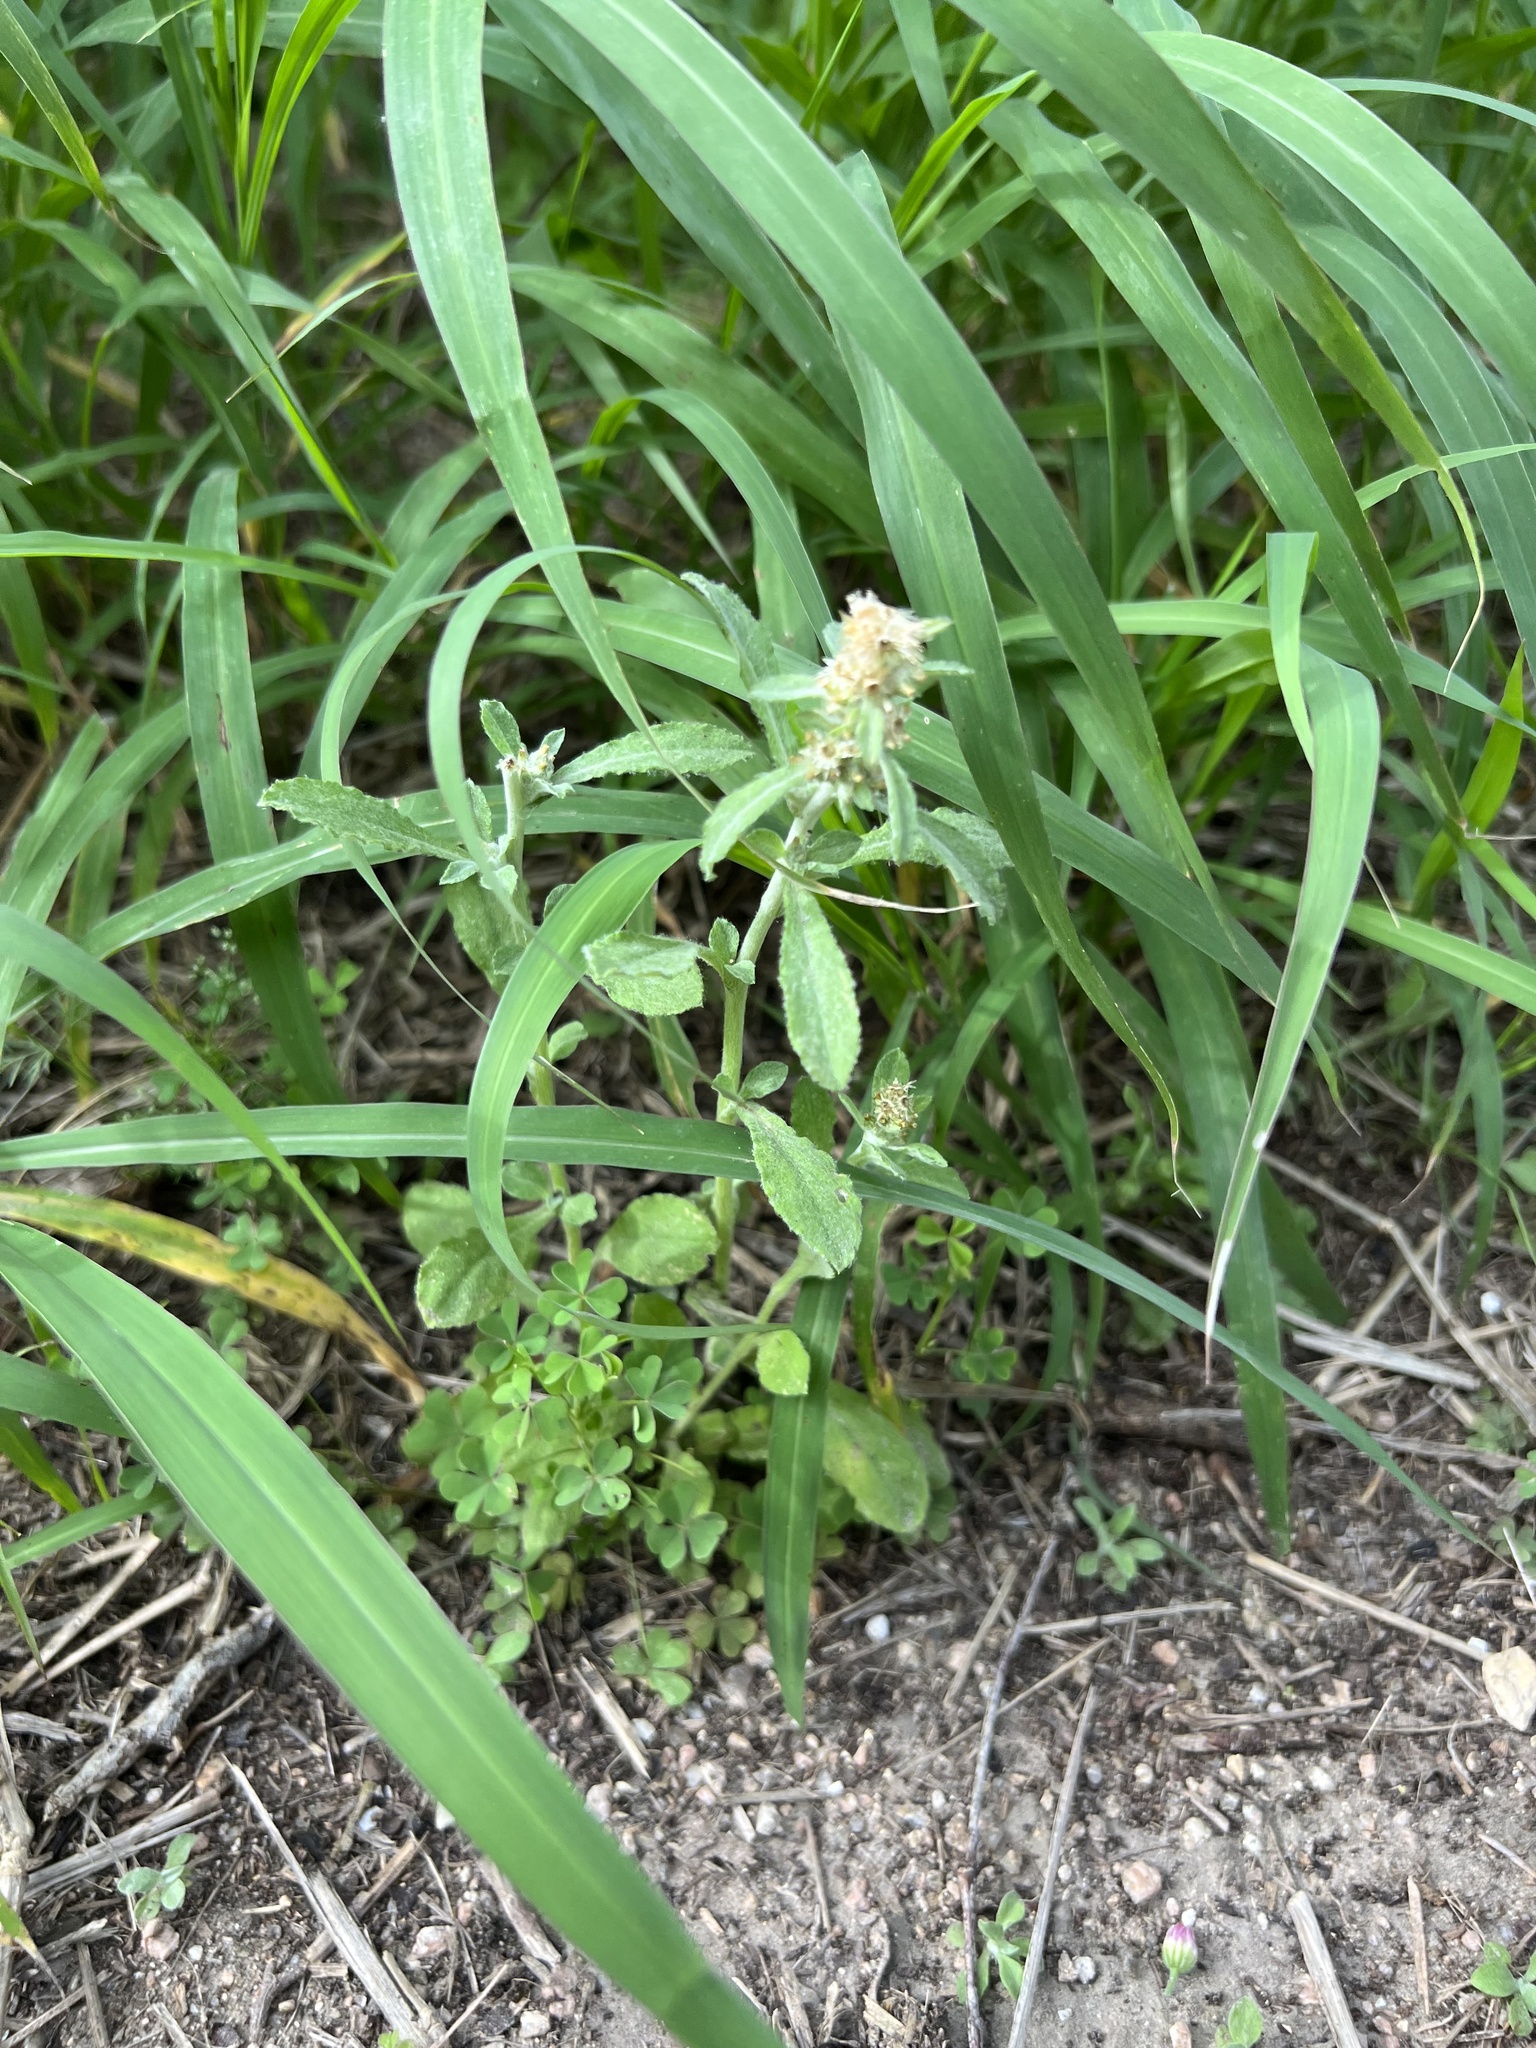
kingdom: Plantae
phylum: Tracheophyta
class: Magnoliopsida
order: Asterales
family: Asteraceae
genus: Gamochaeta
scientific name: Gamochaeta pensylvanica
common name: Pennsylvania everlasting
